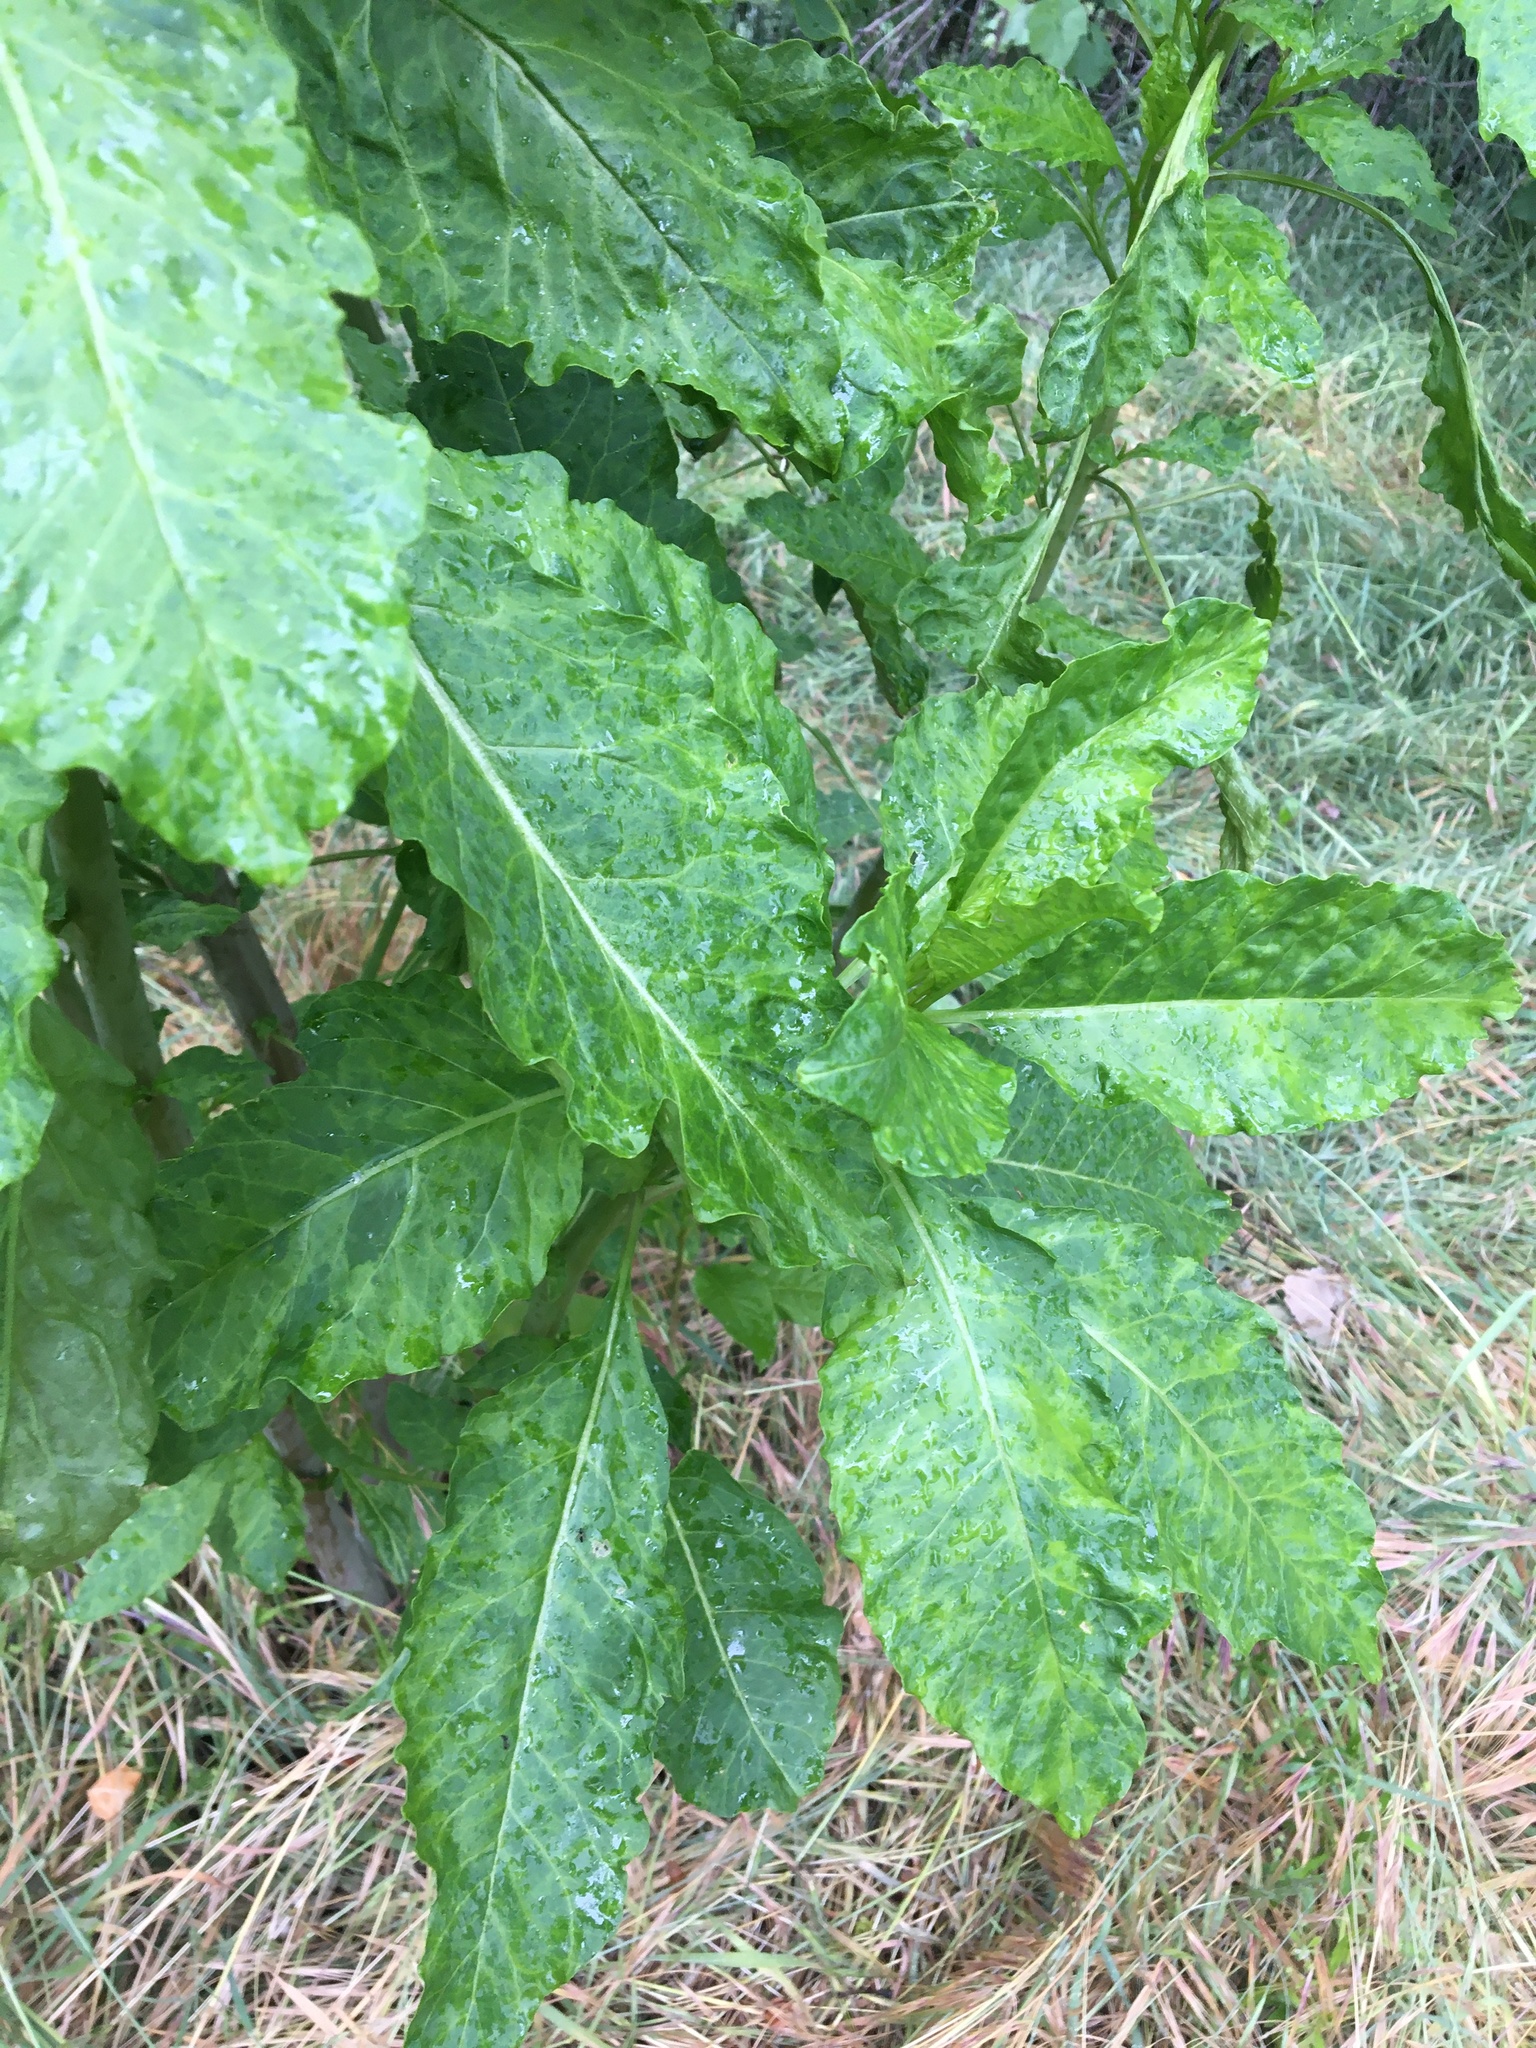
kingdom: Plantae
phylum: Tracheophyta
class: Magnoliopsida
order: Caryophyllales
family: Phytolaccaceae
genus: Phytolacca
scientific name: Phytolacca americana
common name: American pokeweed
